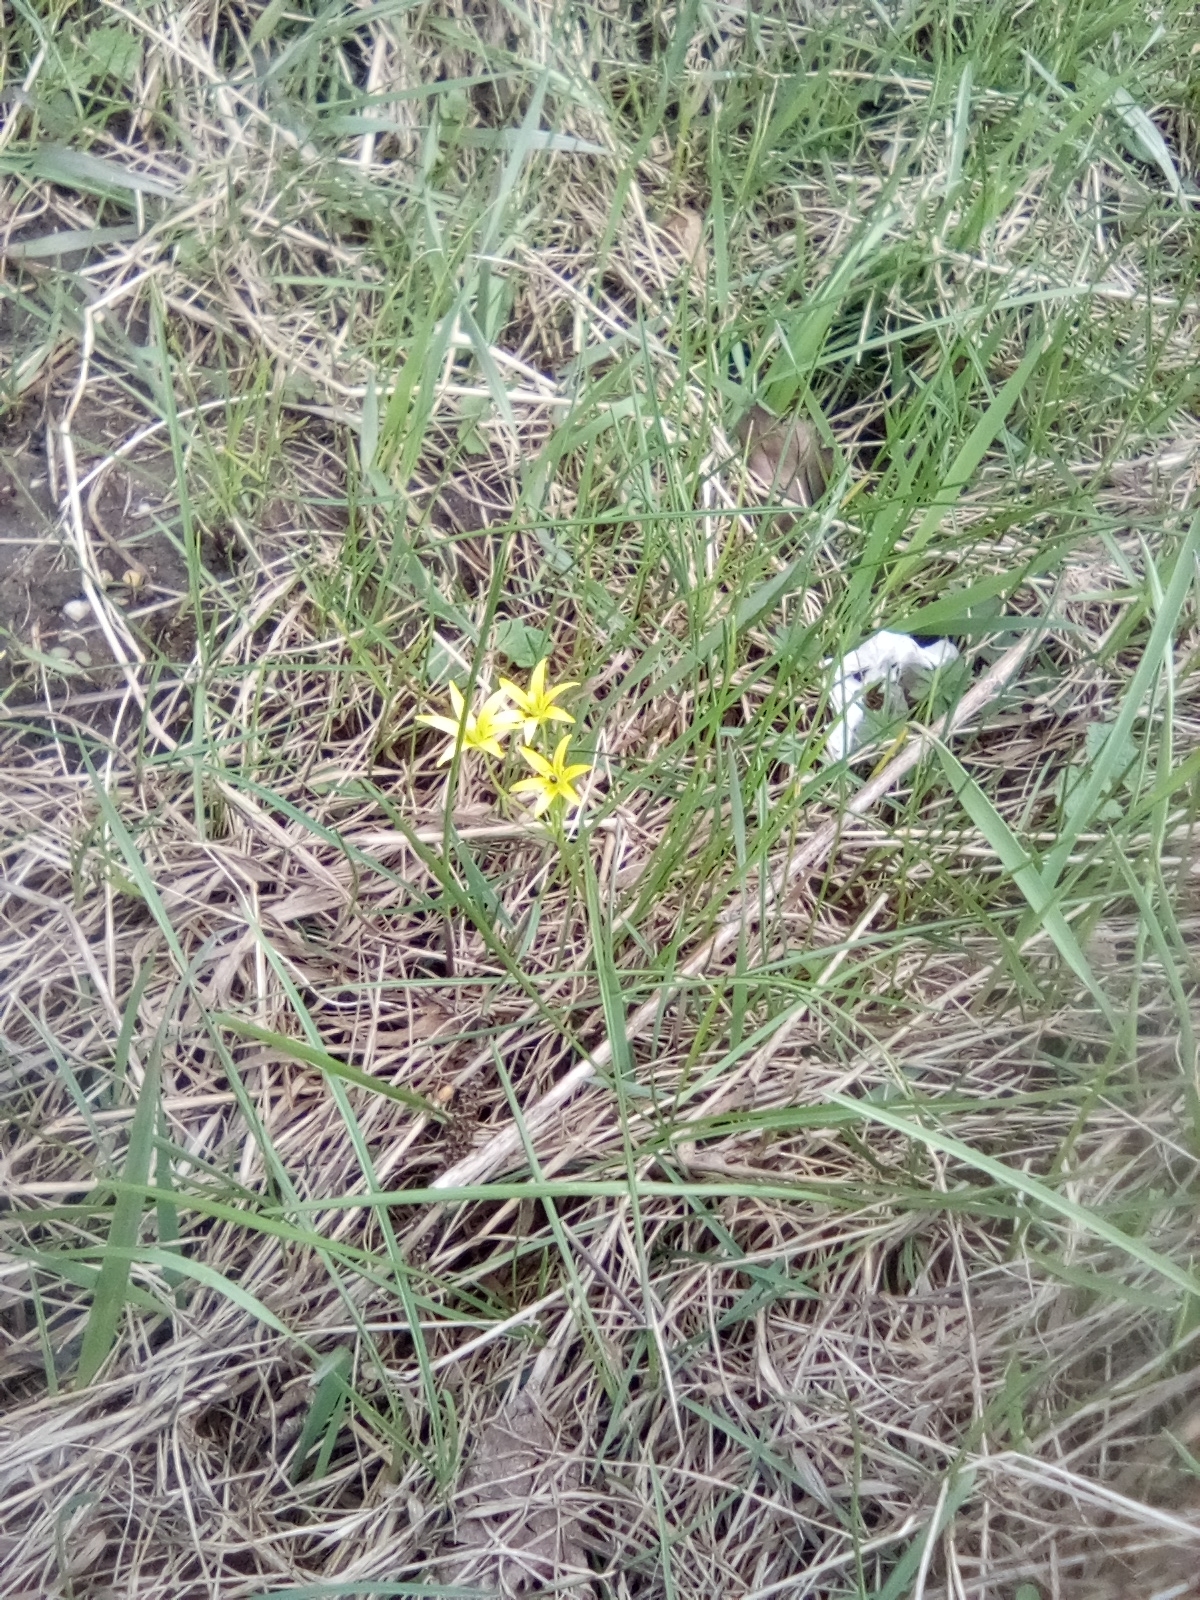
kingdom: Plantae
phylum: Tracheophyta
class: Liliopsida
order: Liliales
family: Liliaceae
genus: Gagea
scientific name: Gagea minima
